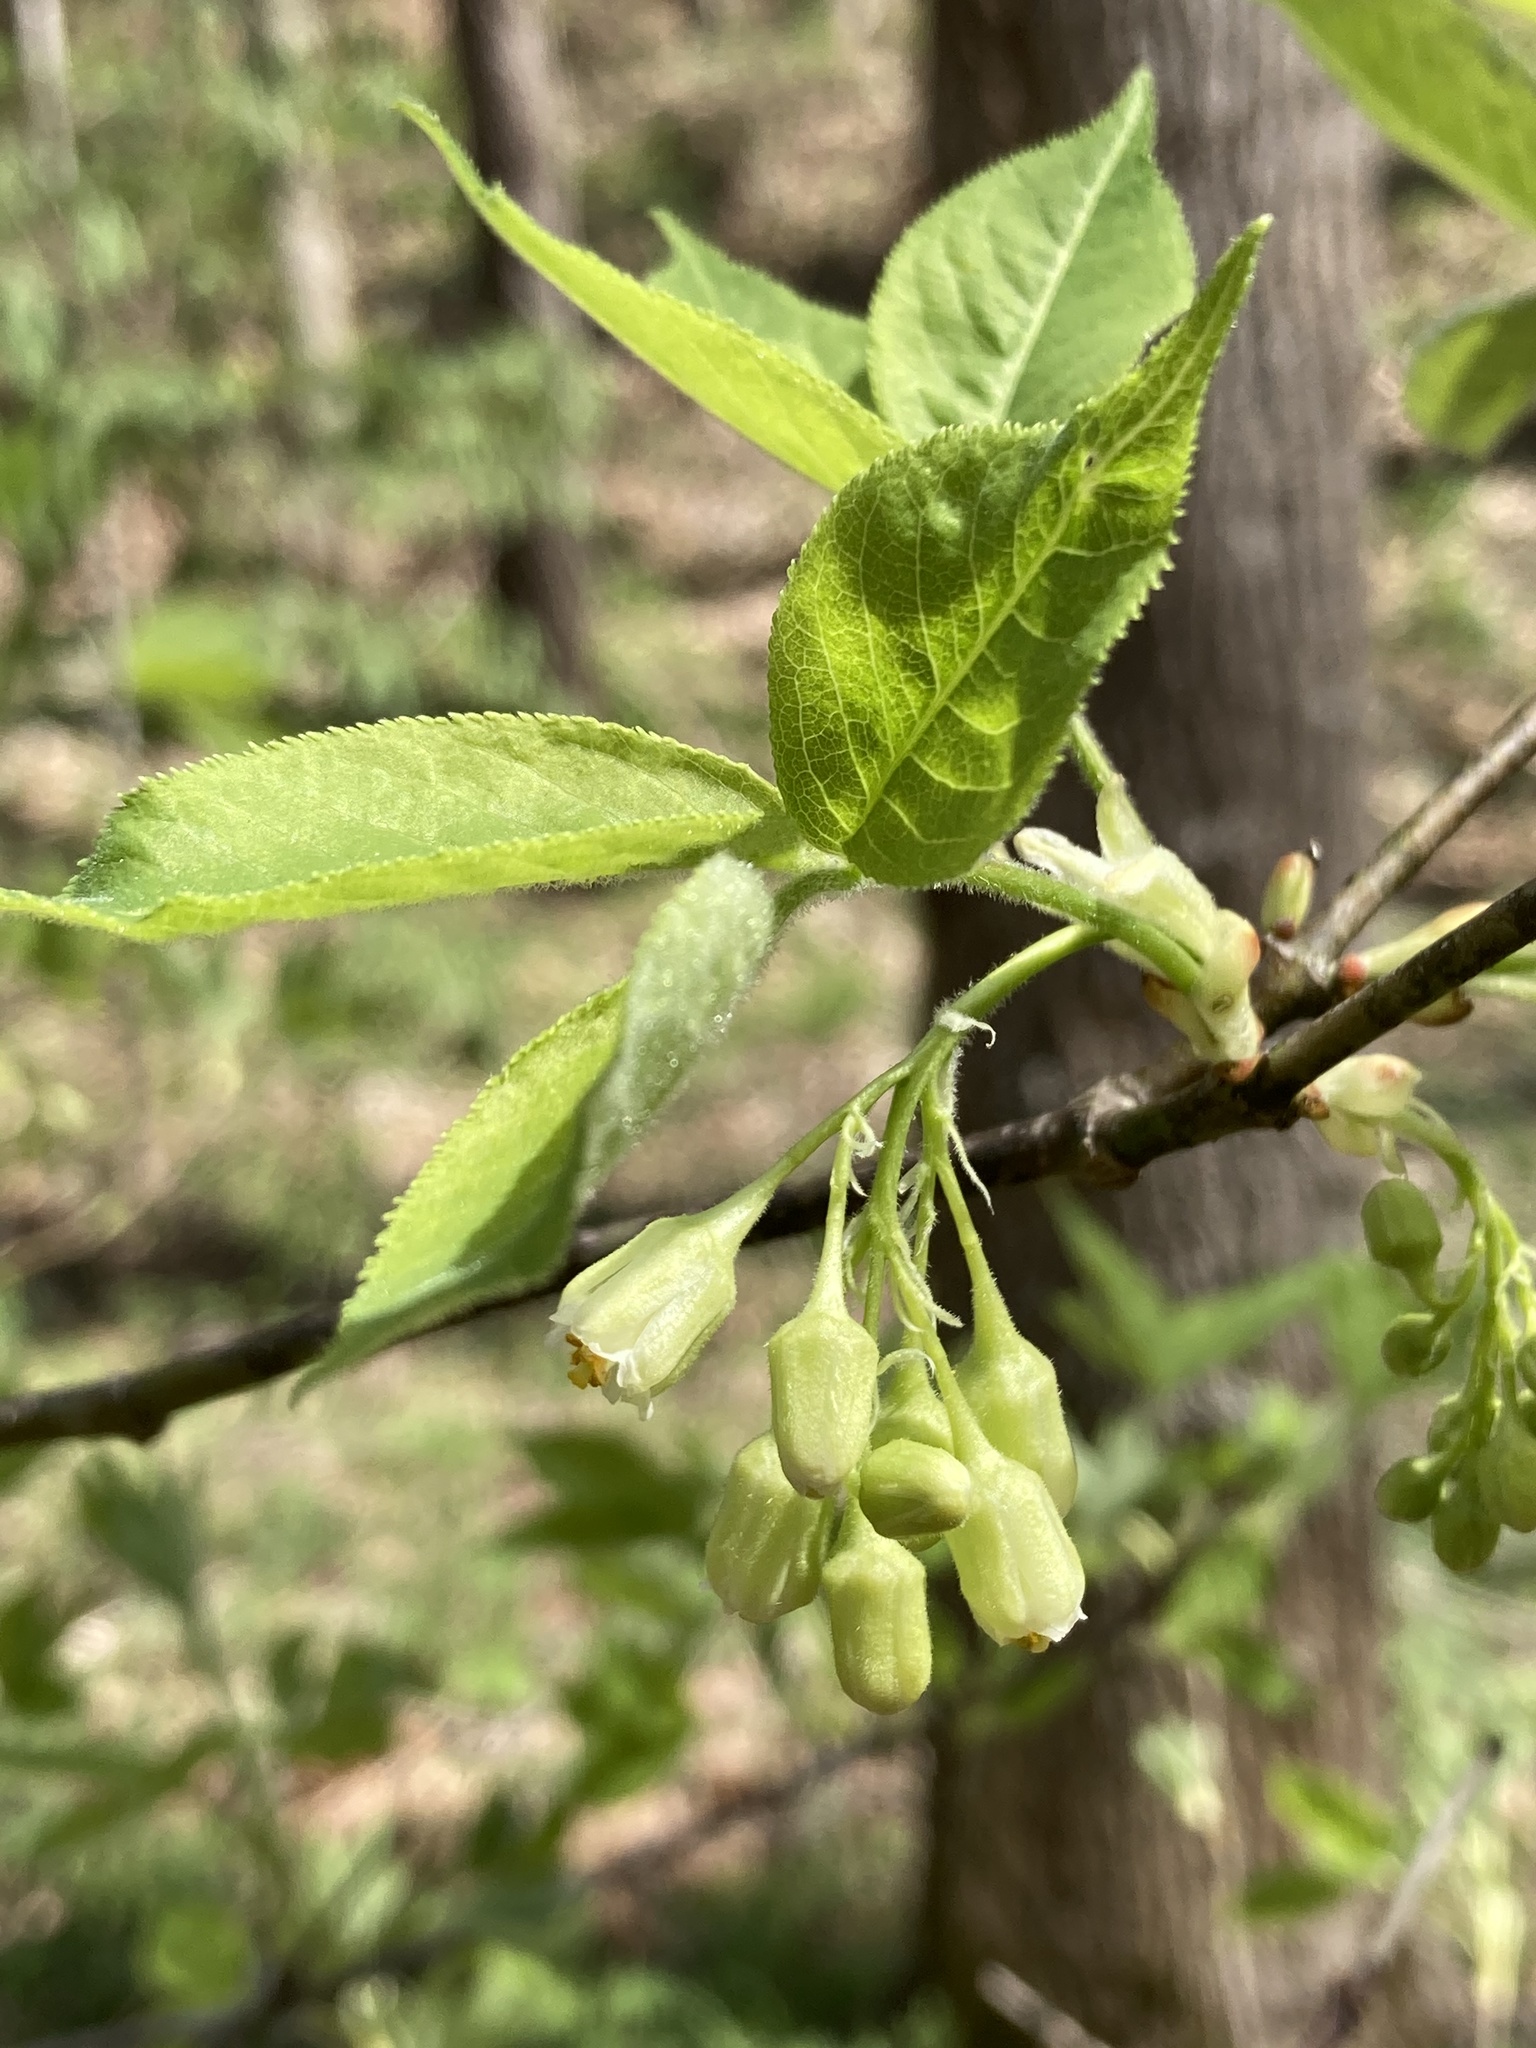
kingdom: Plantae
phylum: Tracheophyta
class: Magnoliopsida
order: Crossosomatales
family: Staphyleaceae
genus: Staphylea
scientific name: Staphylea trifolia
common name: American bladdernut
